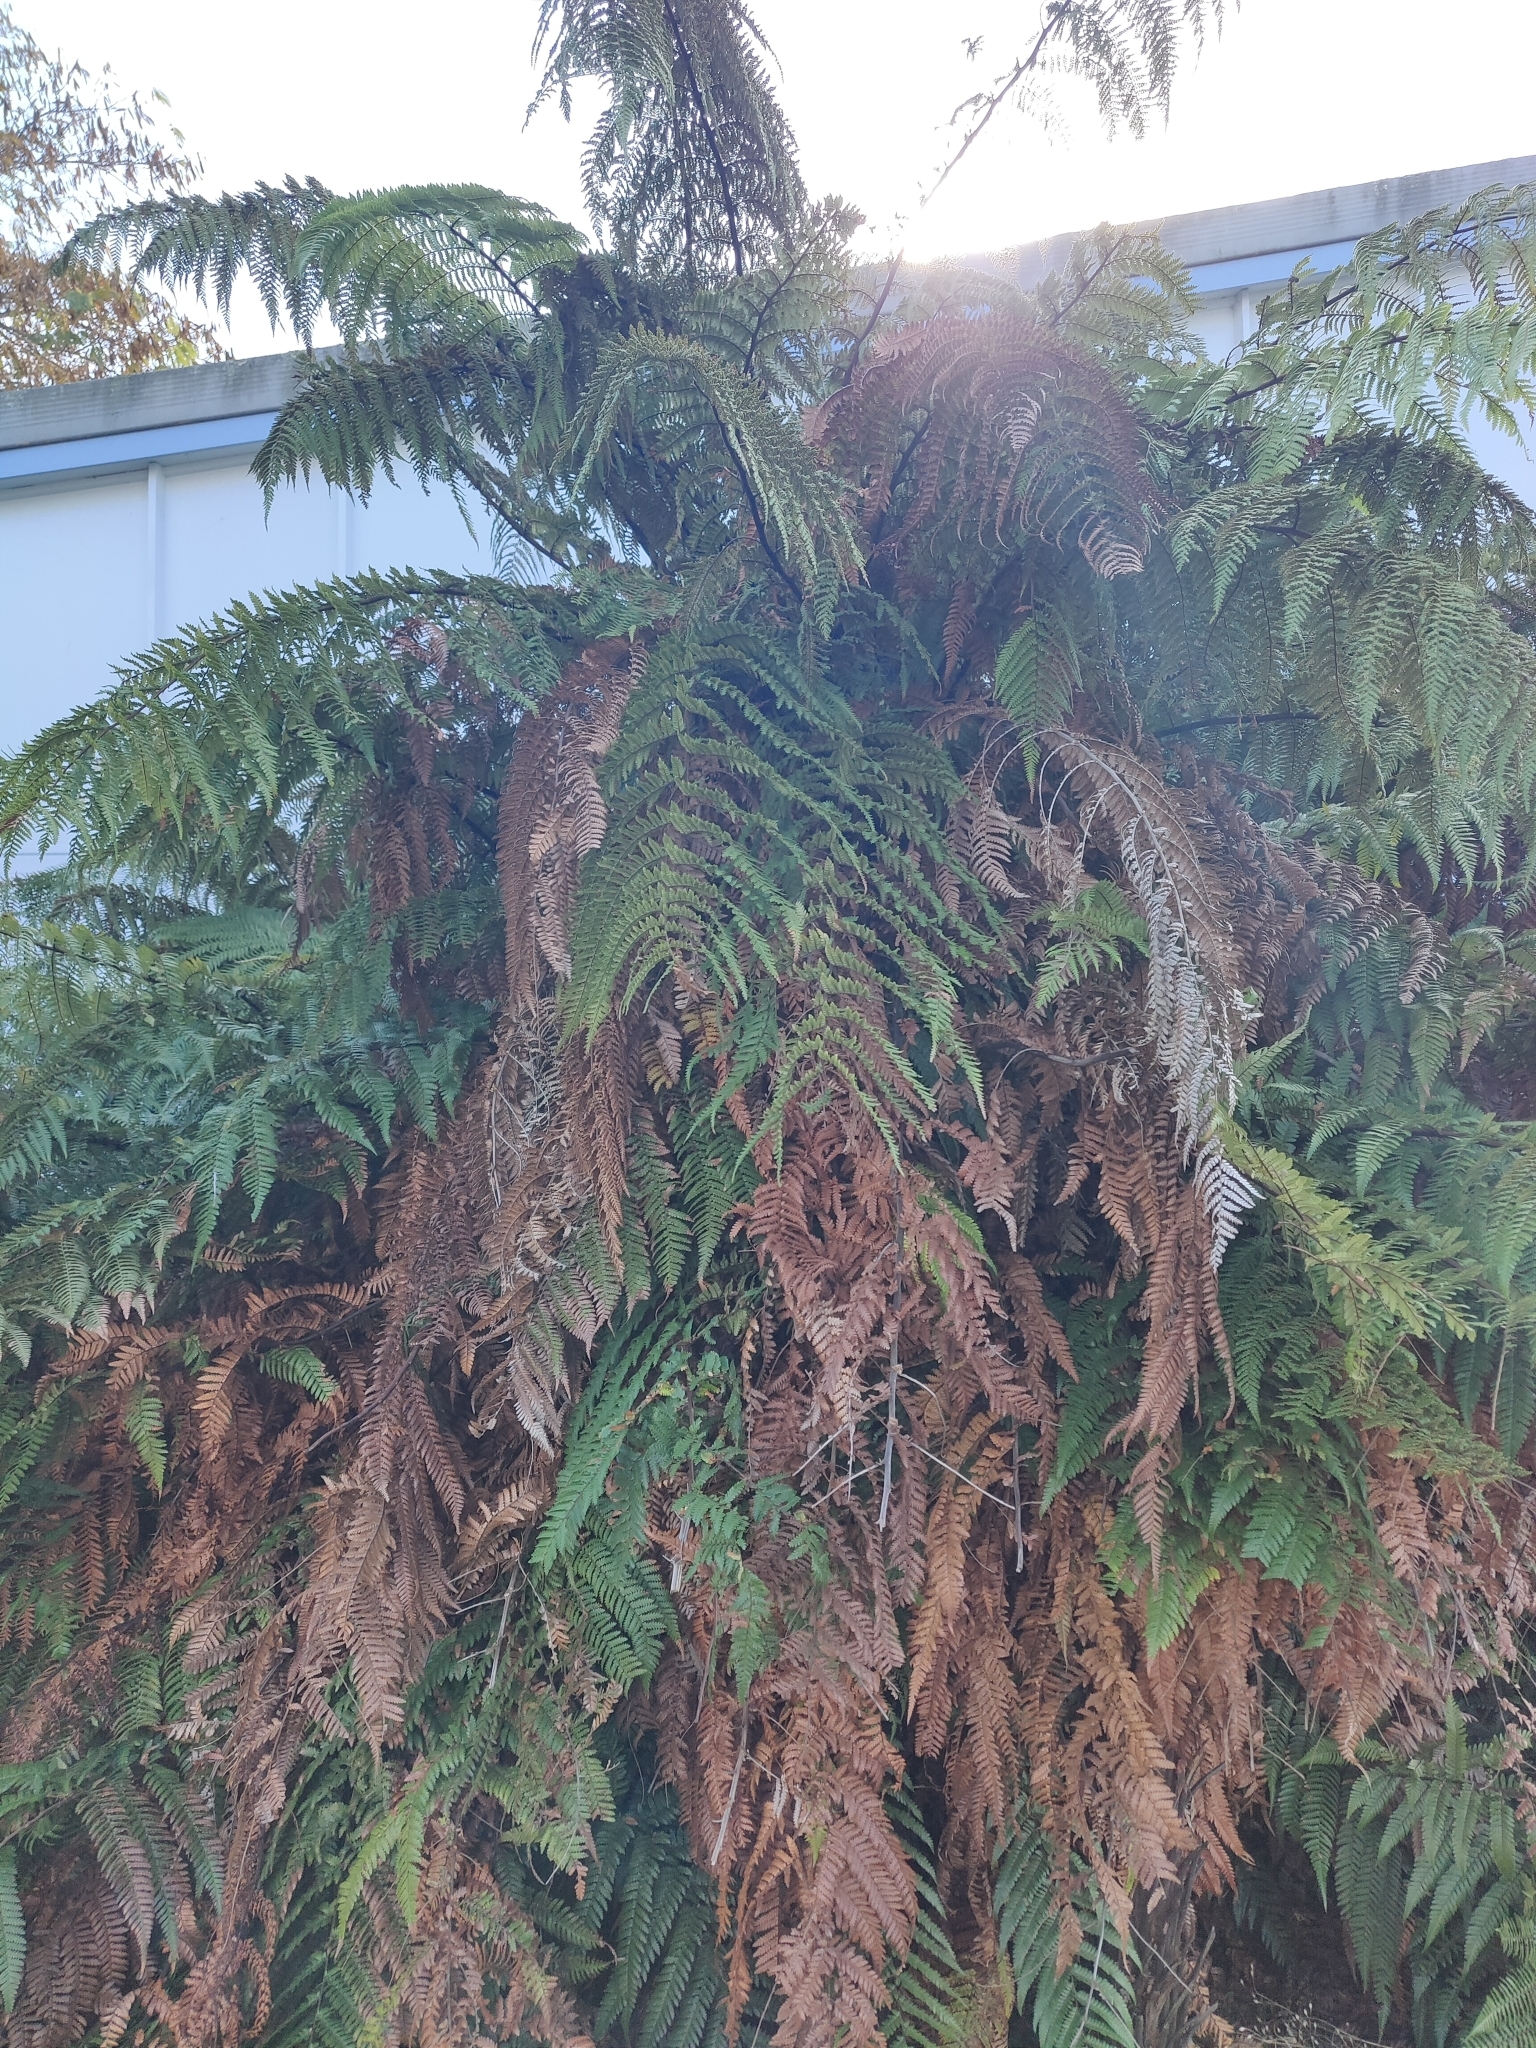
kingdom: Plantae
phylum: Tracheophyta
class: Polypodiopsida
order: Cyatheales
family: Dicksoniaceae
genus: Dicksonia
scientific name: Dicksonia squarrosa
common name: Hard treefern
